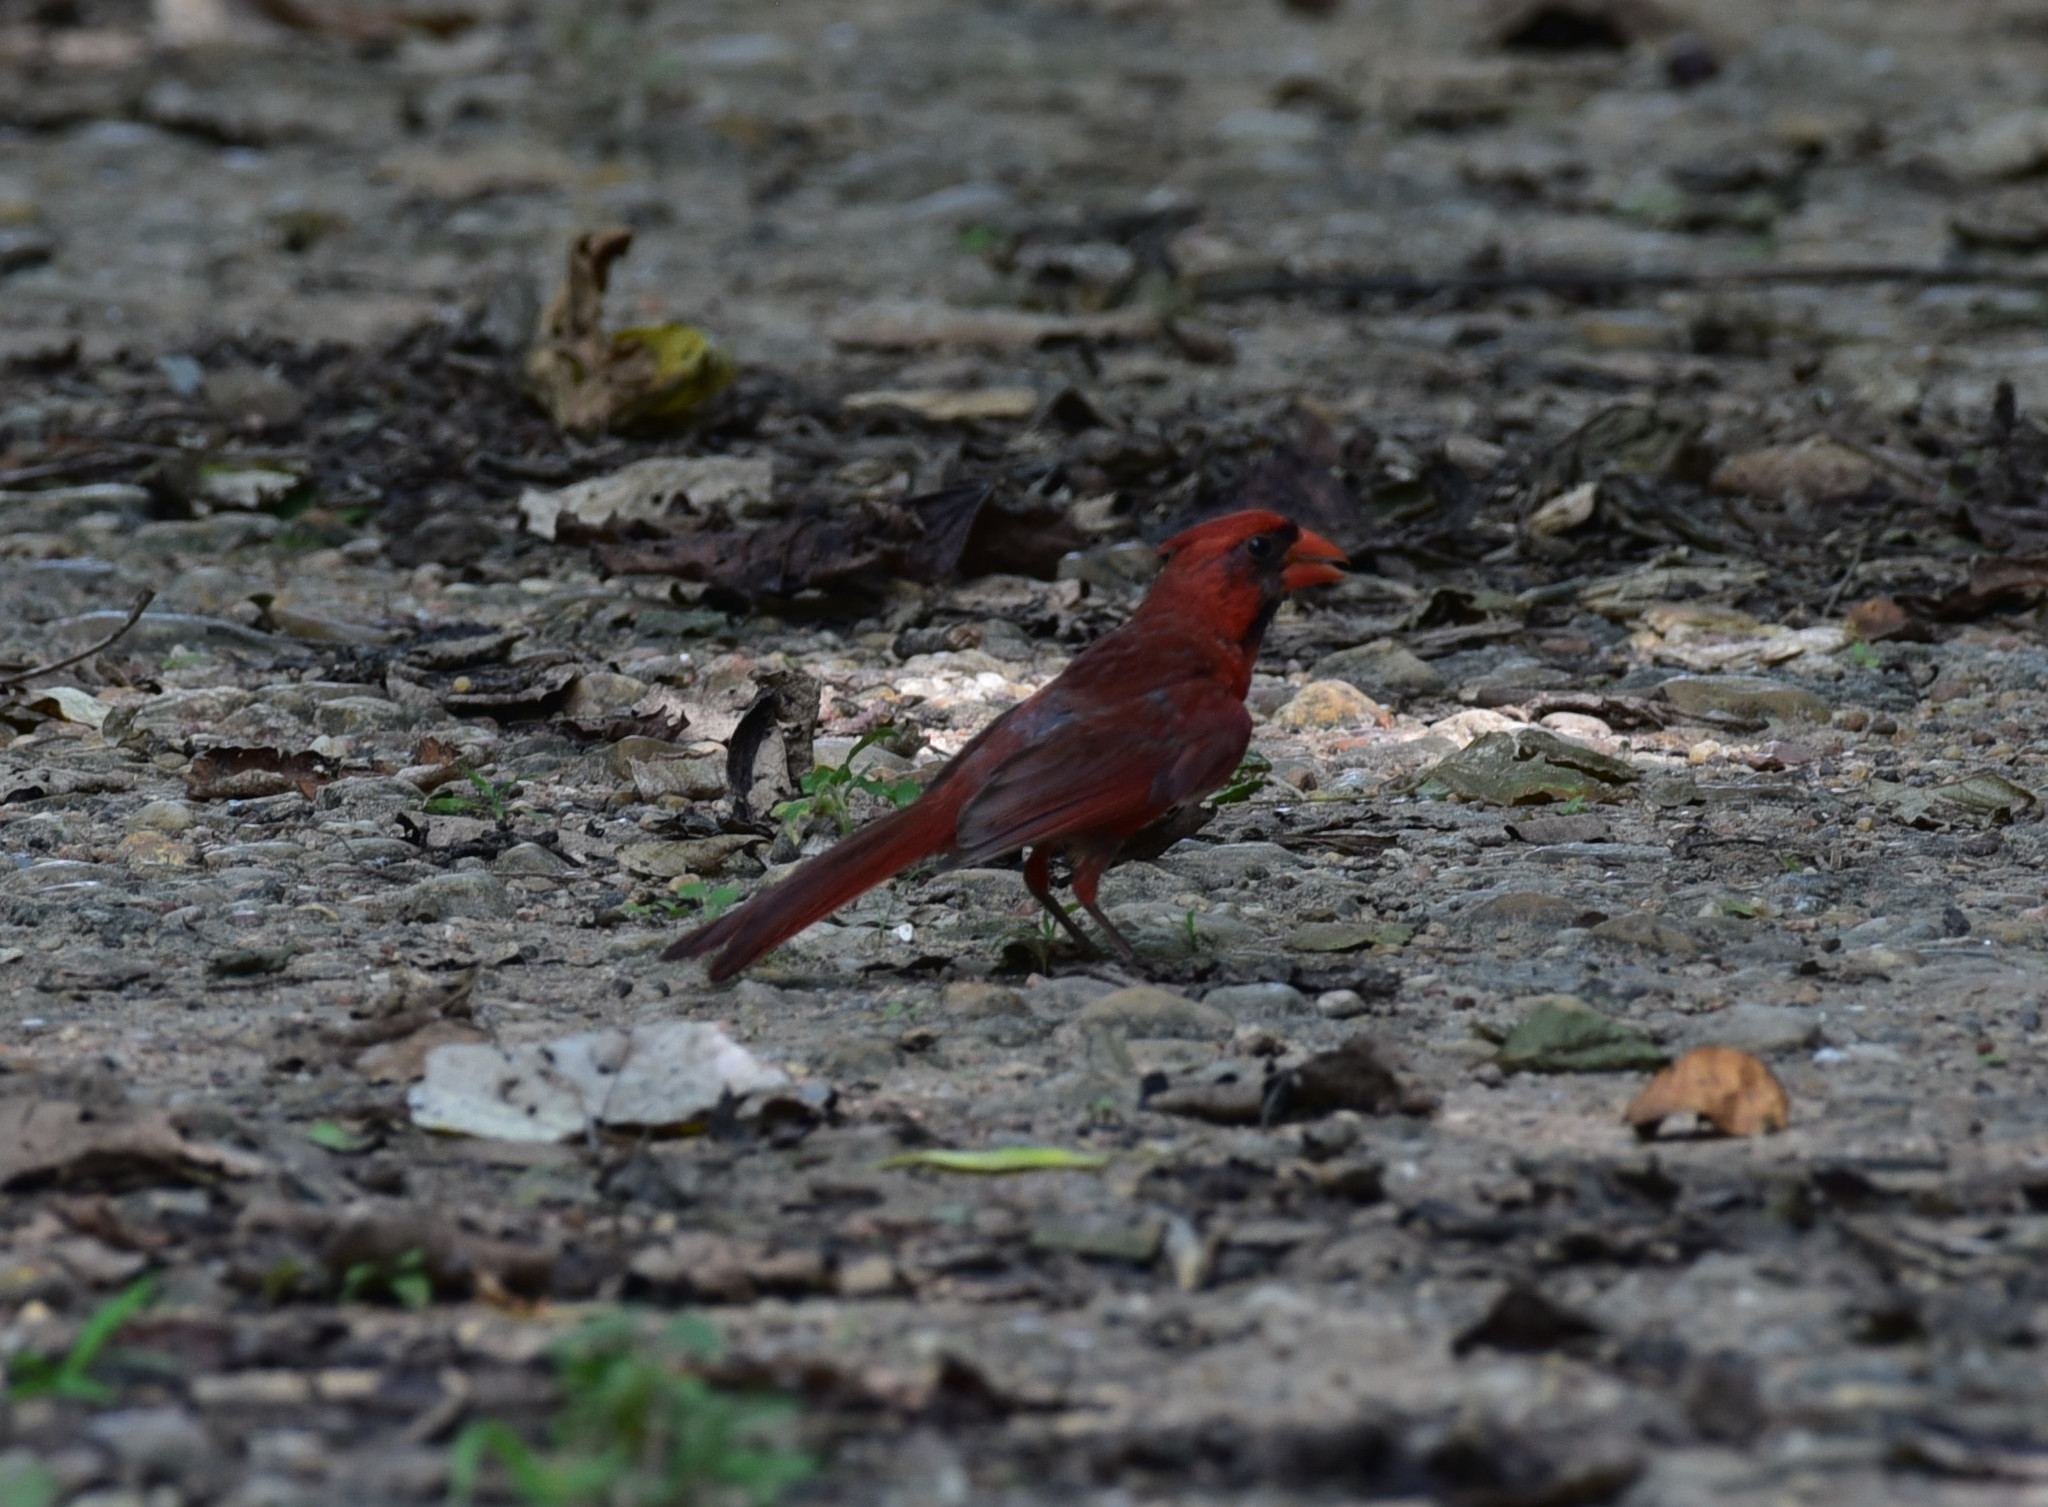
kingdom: Animalia
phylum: Chordata
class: Aves
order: Passeriformes
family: Cardinalidae
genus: Cardinalis
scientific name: Cardinalis cardinalis
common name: Northern cardinal
